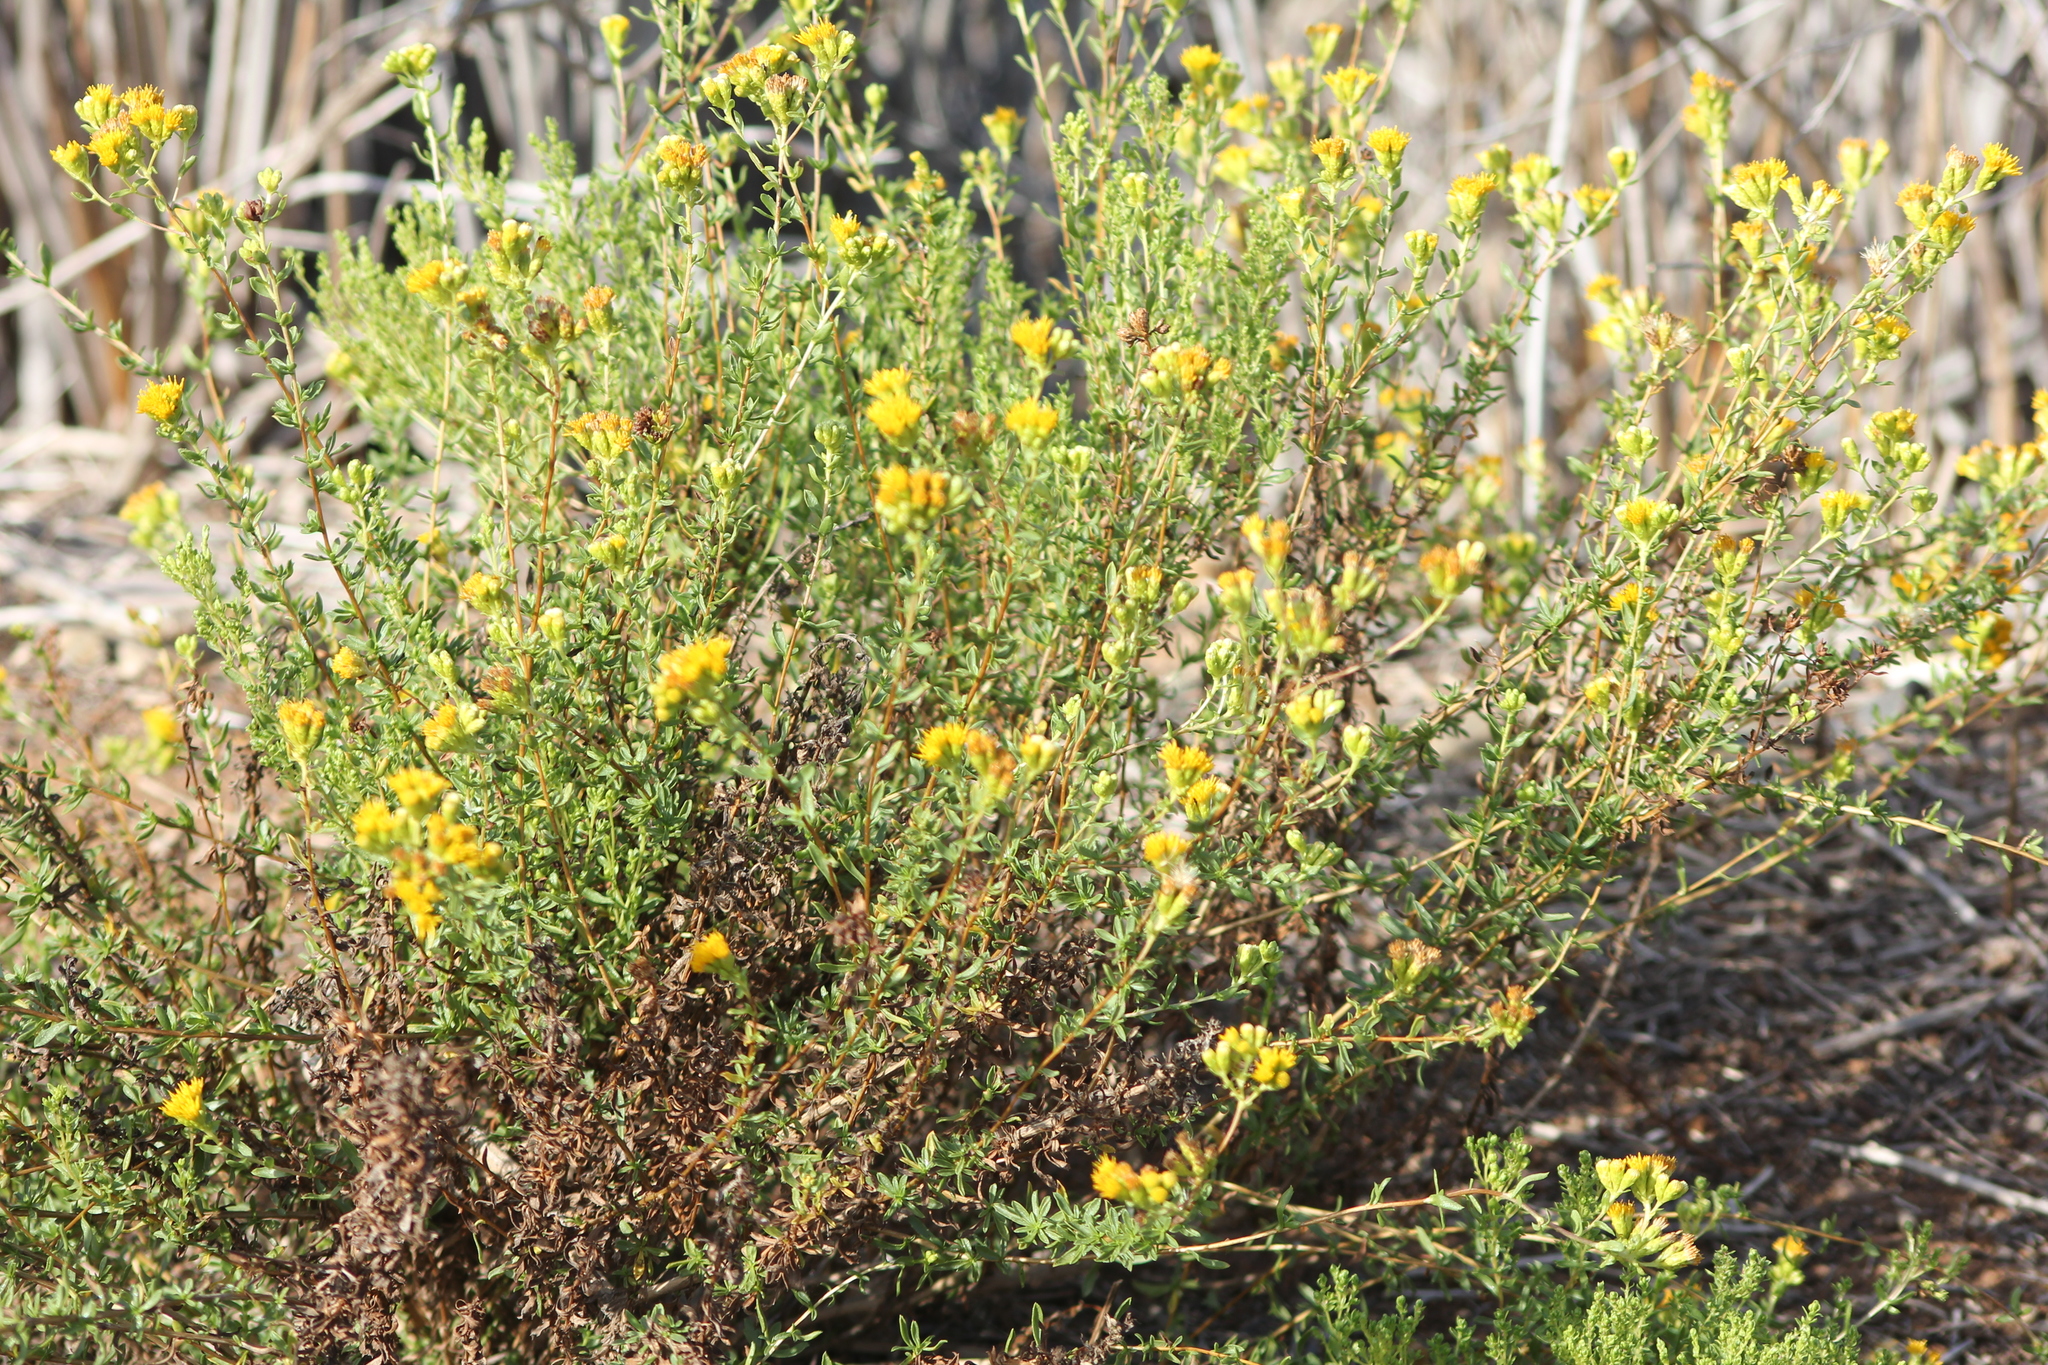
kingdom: Plantae
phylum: Tracheophyta
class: Magnoliopsida
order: Asterales
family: Asteraceae
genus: Isocoma
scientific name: Isocoma menziesii
